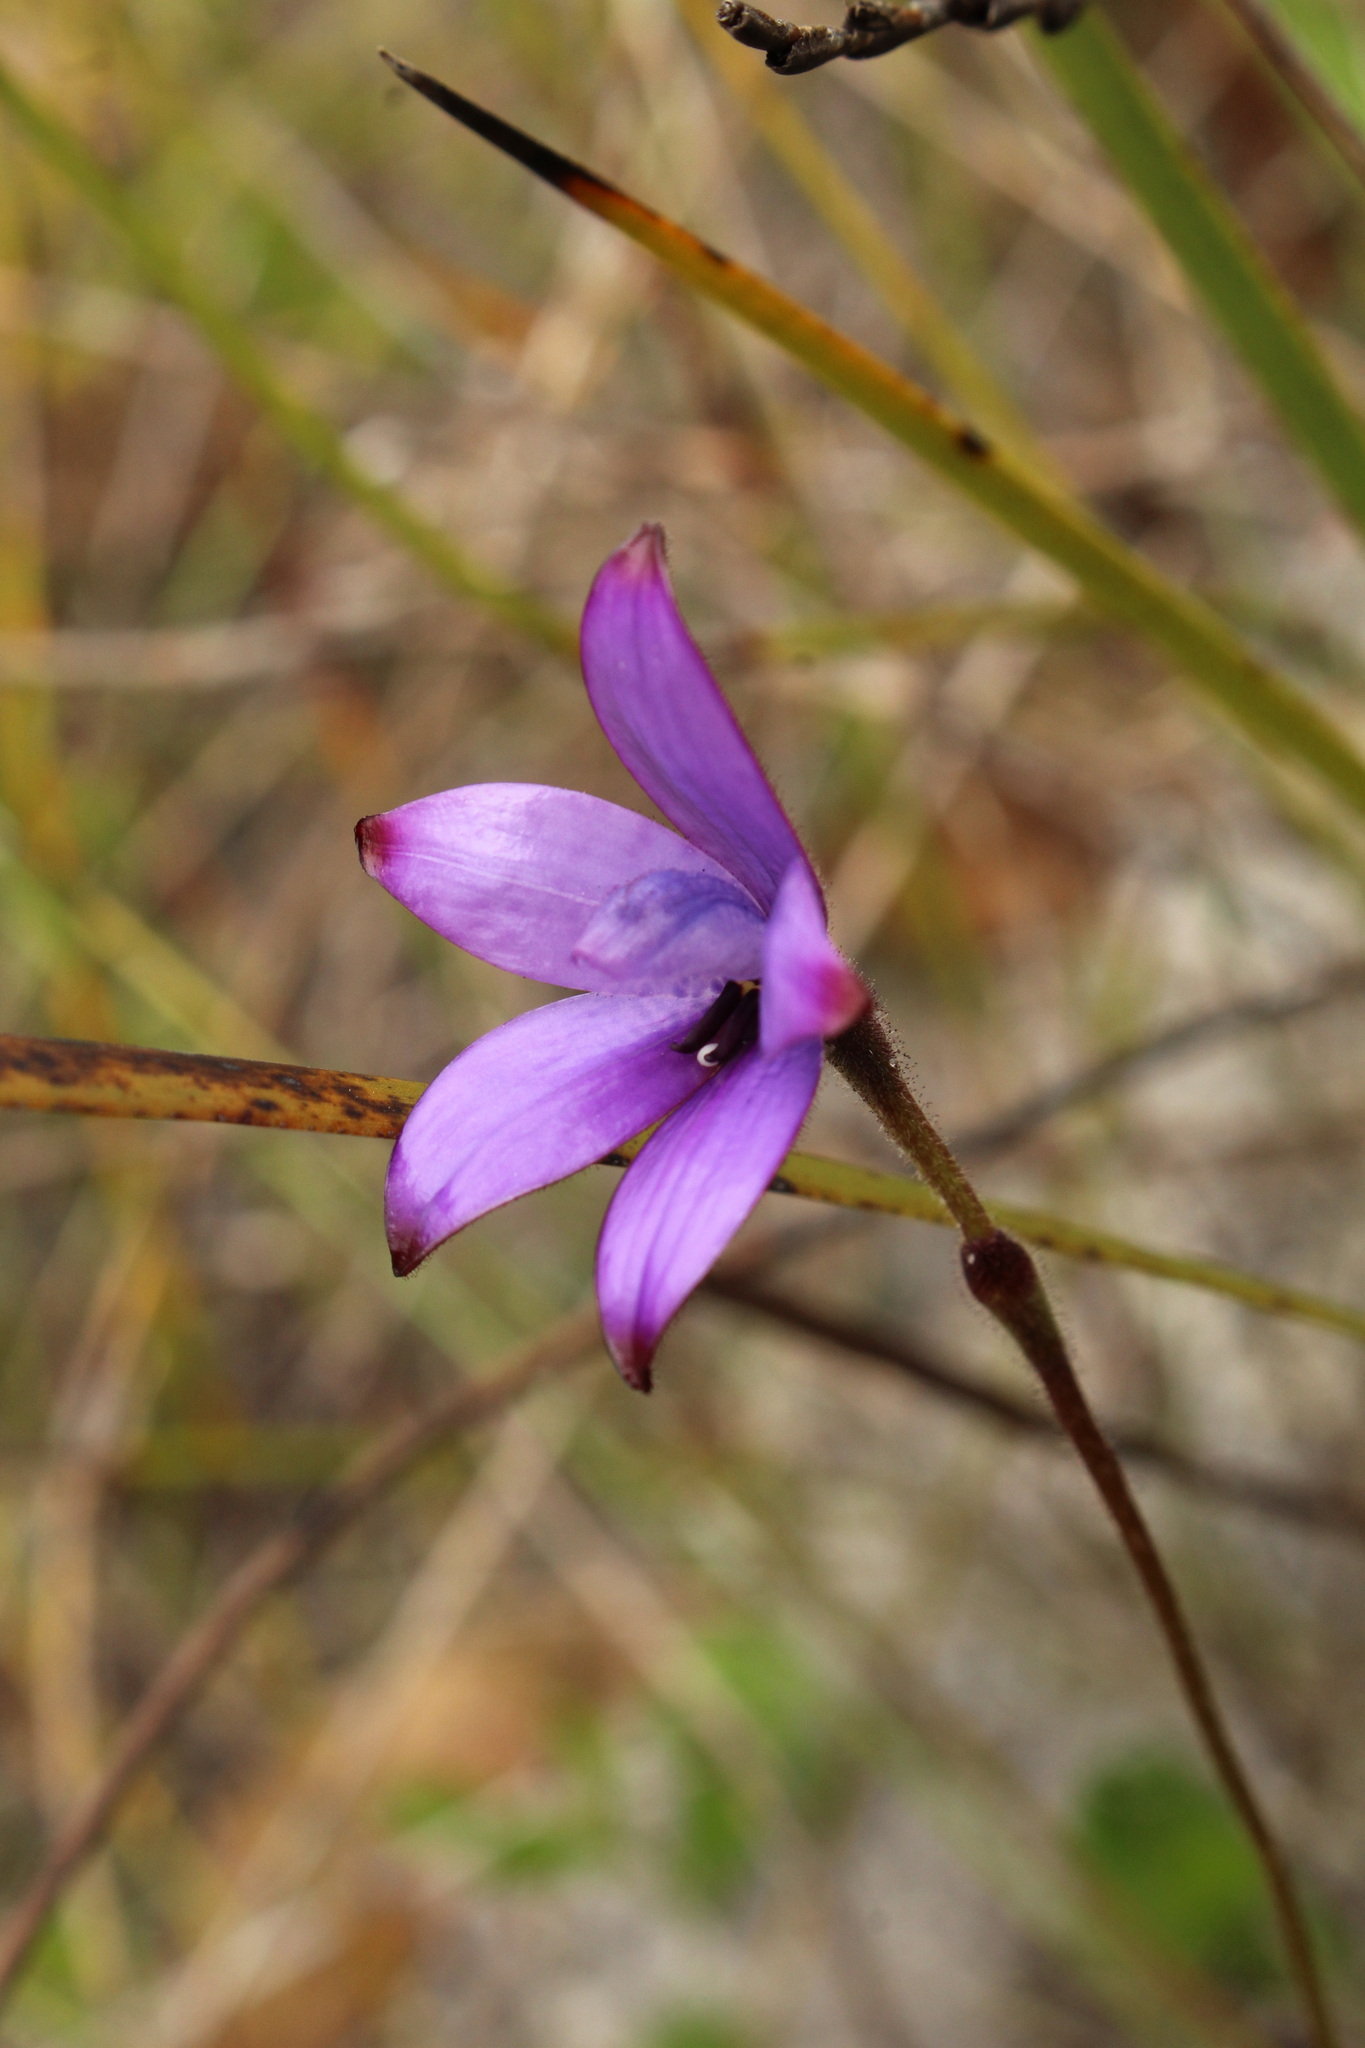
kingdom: Plantae
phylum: Tracheophyta
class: Liliopsida
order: Asparagales
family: Orchidaceae
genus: Caladenia
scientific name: Caladenia brunonis
